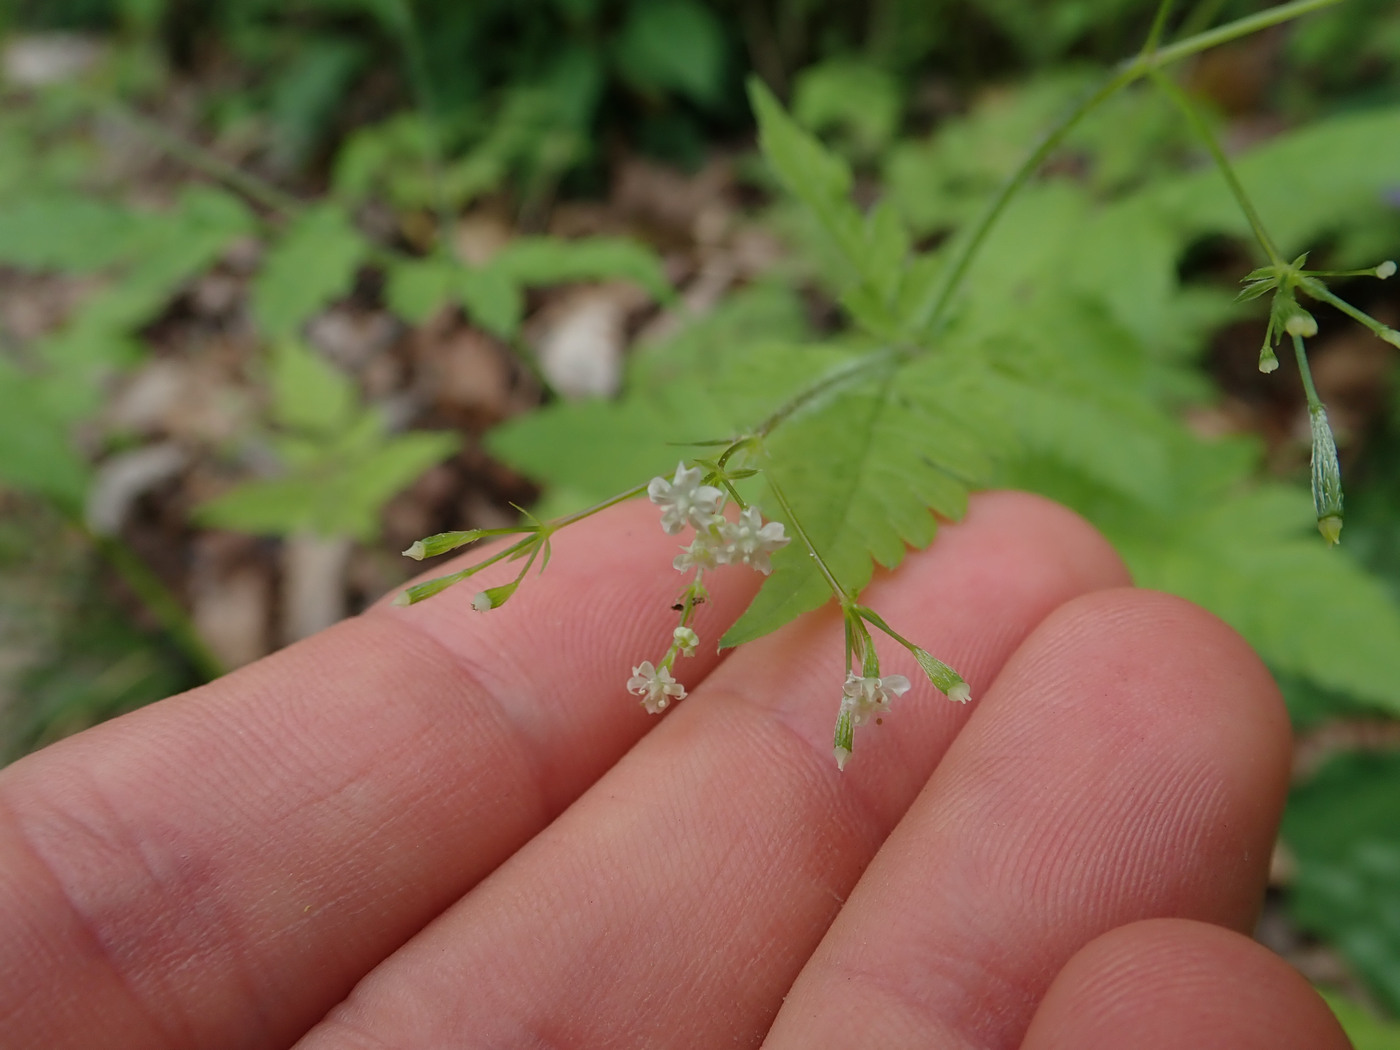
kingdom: Plantae
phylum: Tracheophyta
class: Magnoliopsida
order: Apiales
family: Apiaceae
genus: Osmorhiza
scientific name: Osmorhiza claytonii
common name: Hairy sweet cicely
